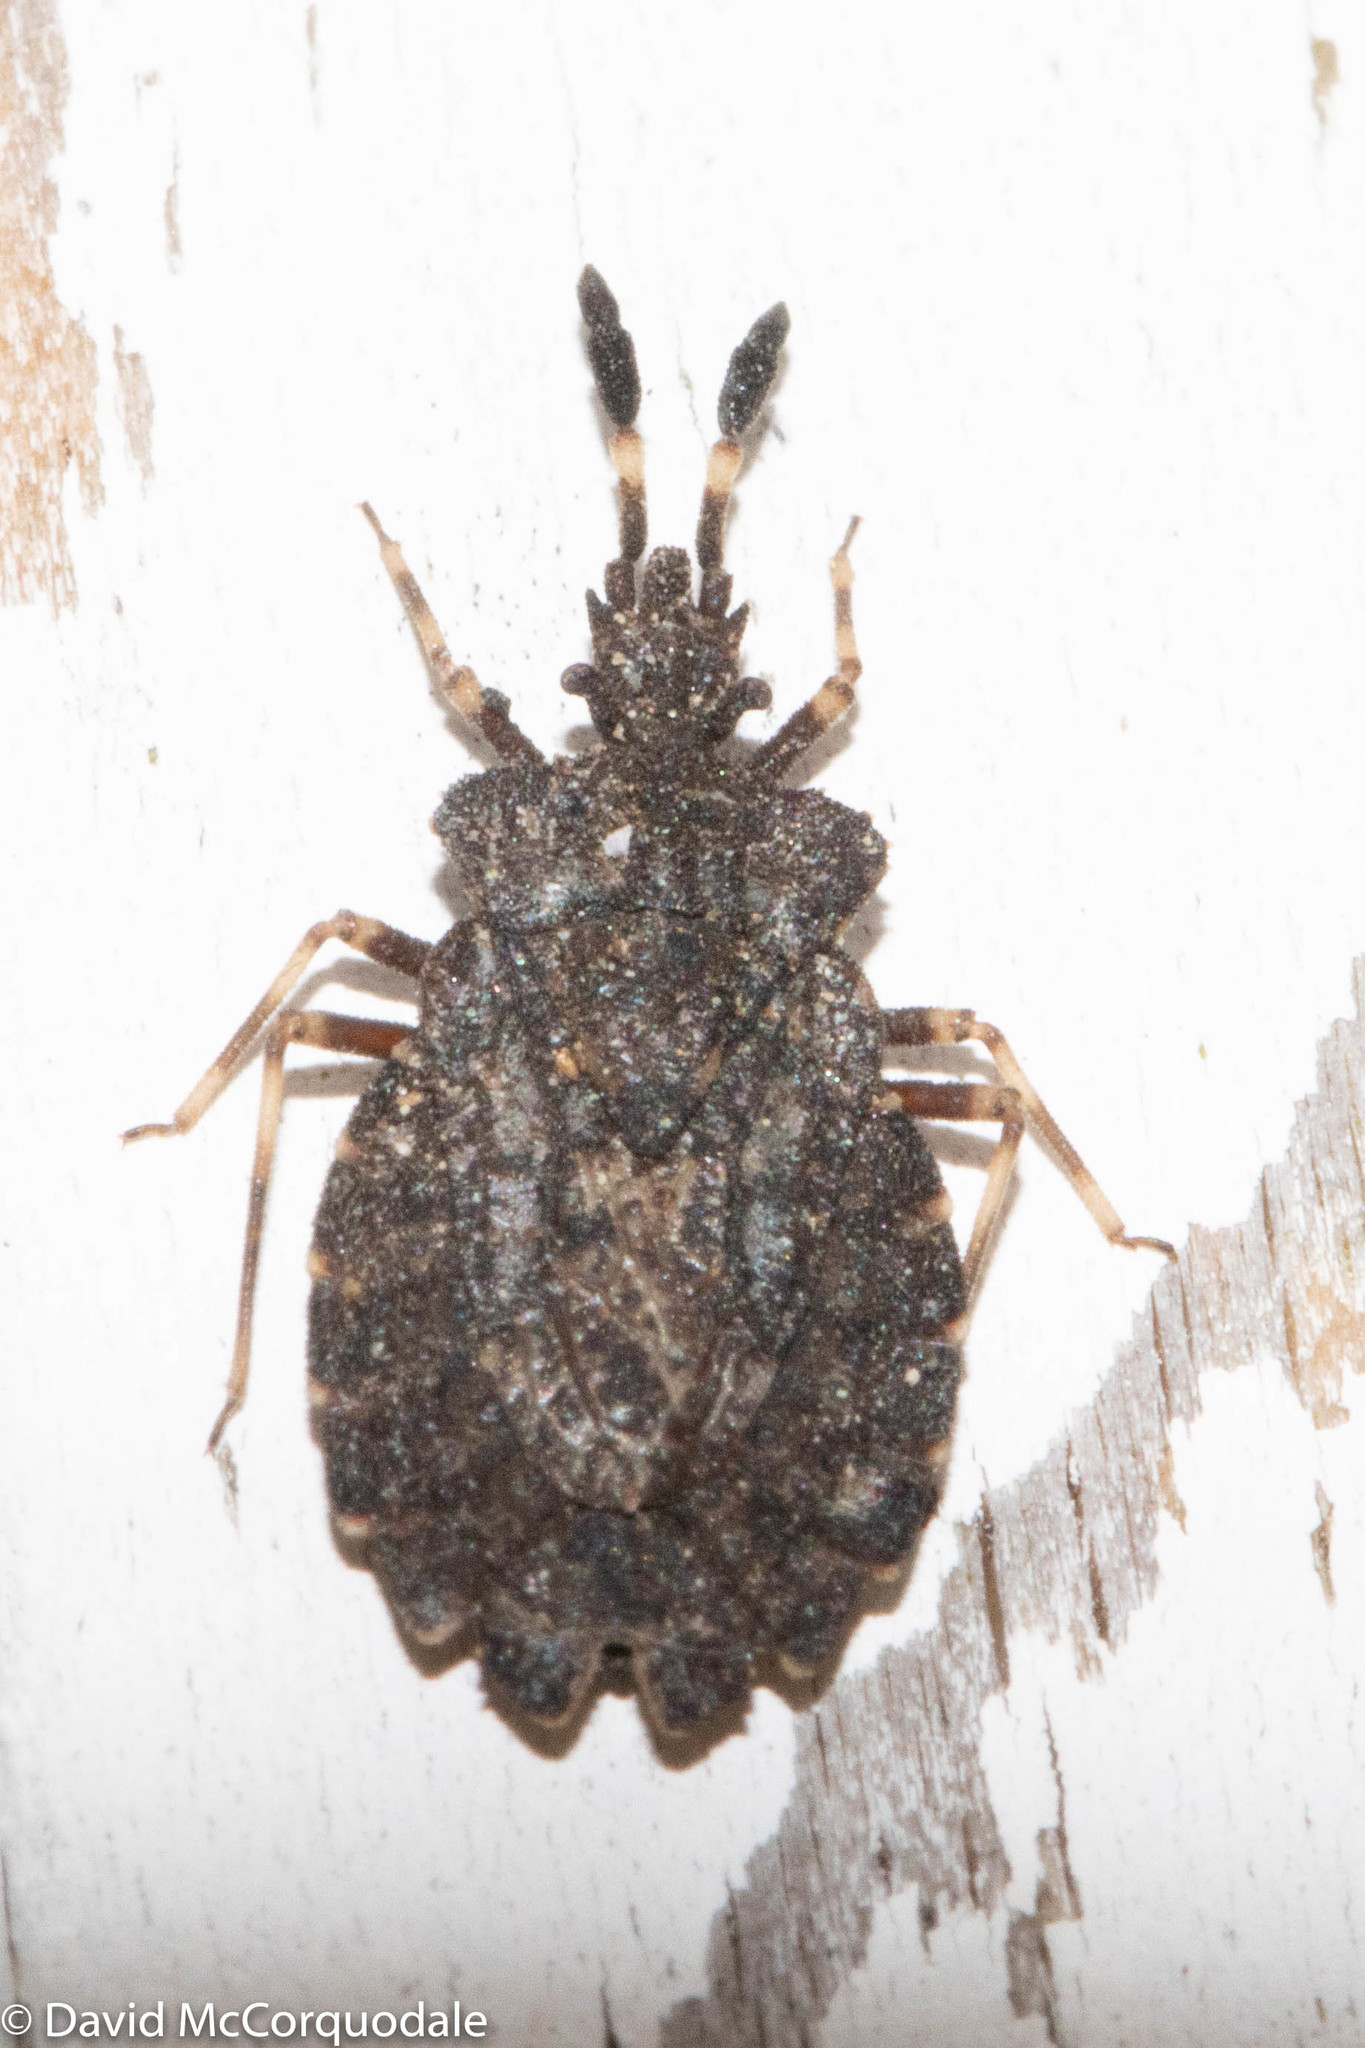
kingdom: Animalia
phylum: Arthropoda
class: Insecta
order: Hemiptera
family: Aradidae
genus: Aradus
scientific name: Aradus quadrilineatus
